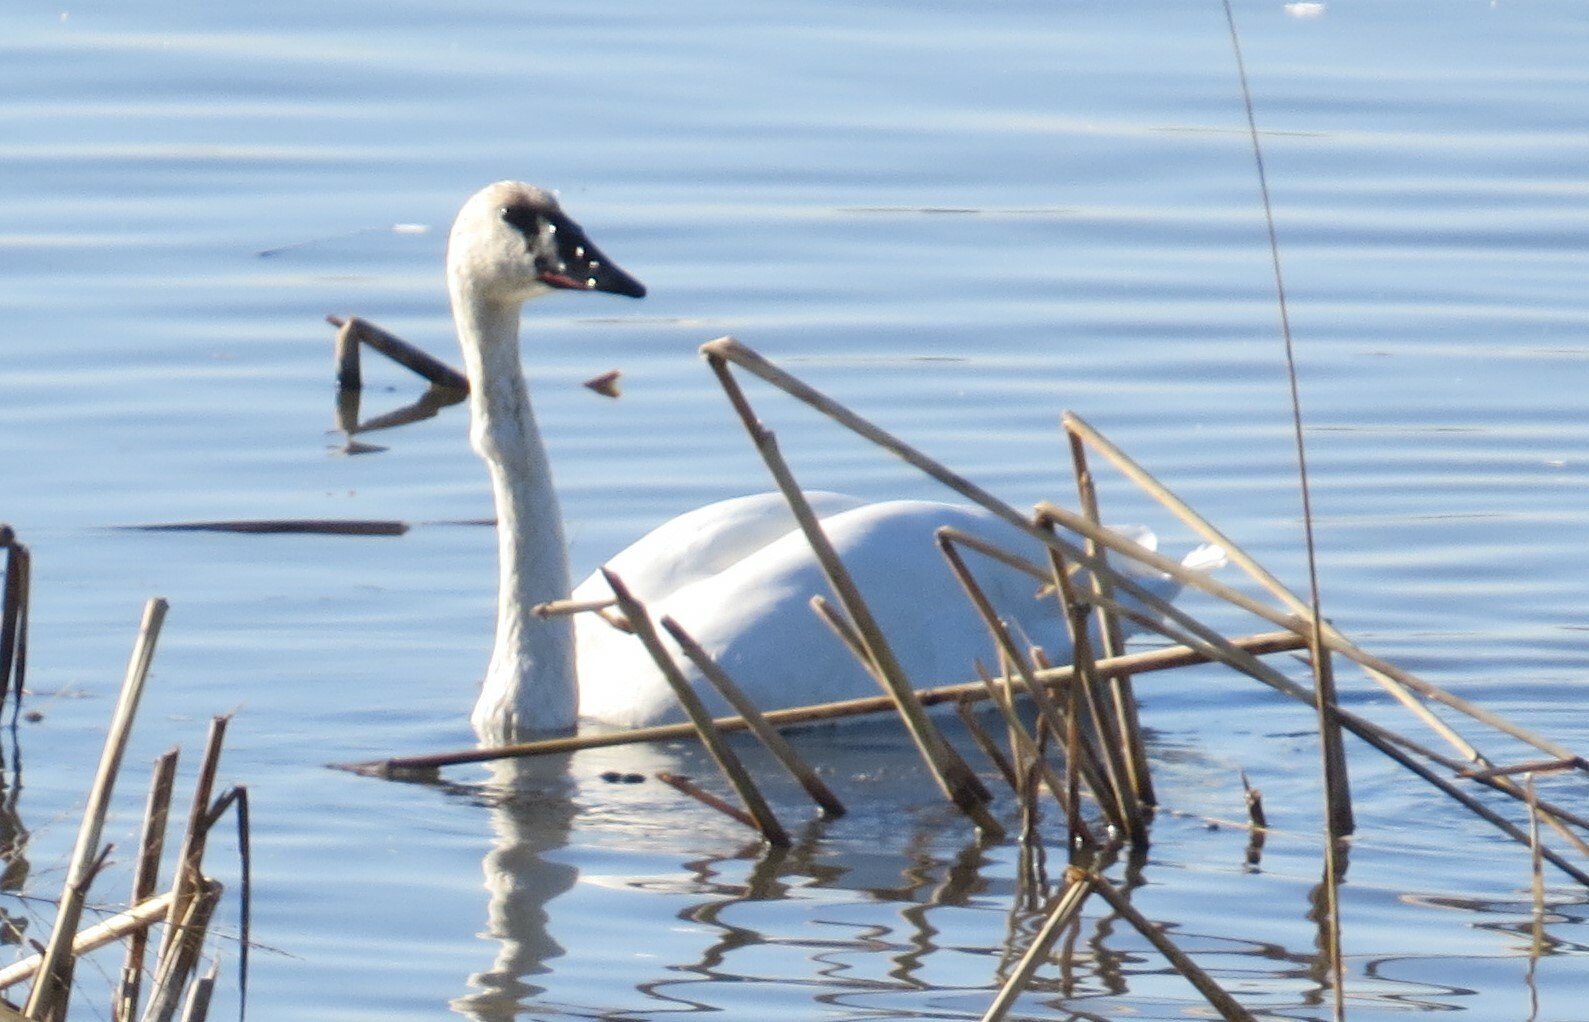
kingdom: Animalia
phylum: Chordata
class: Aves
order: Anseriformes
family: Anatidae
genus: Cygnus
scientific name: Cygnus buccinator
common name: Trumpeter swan
